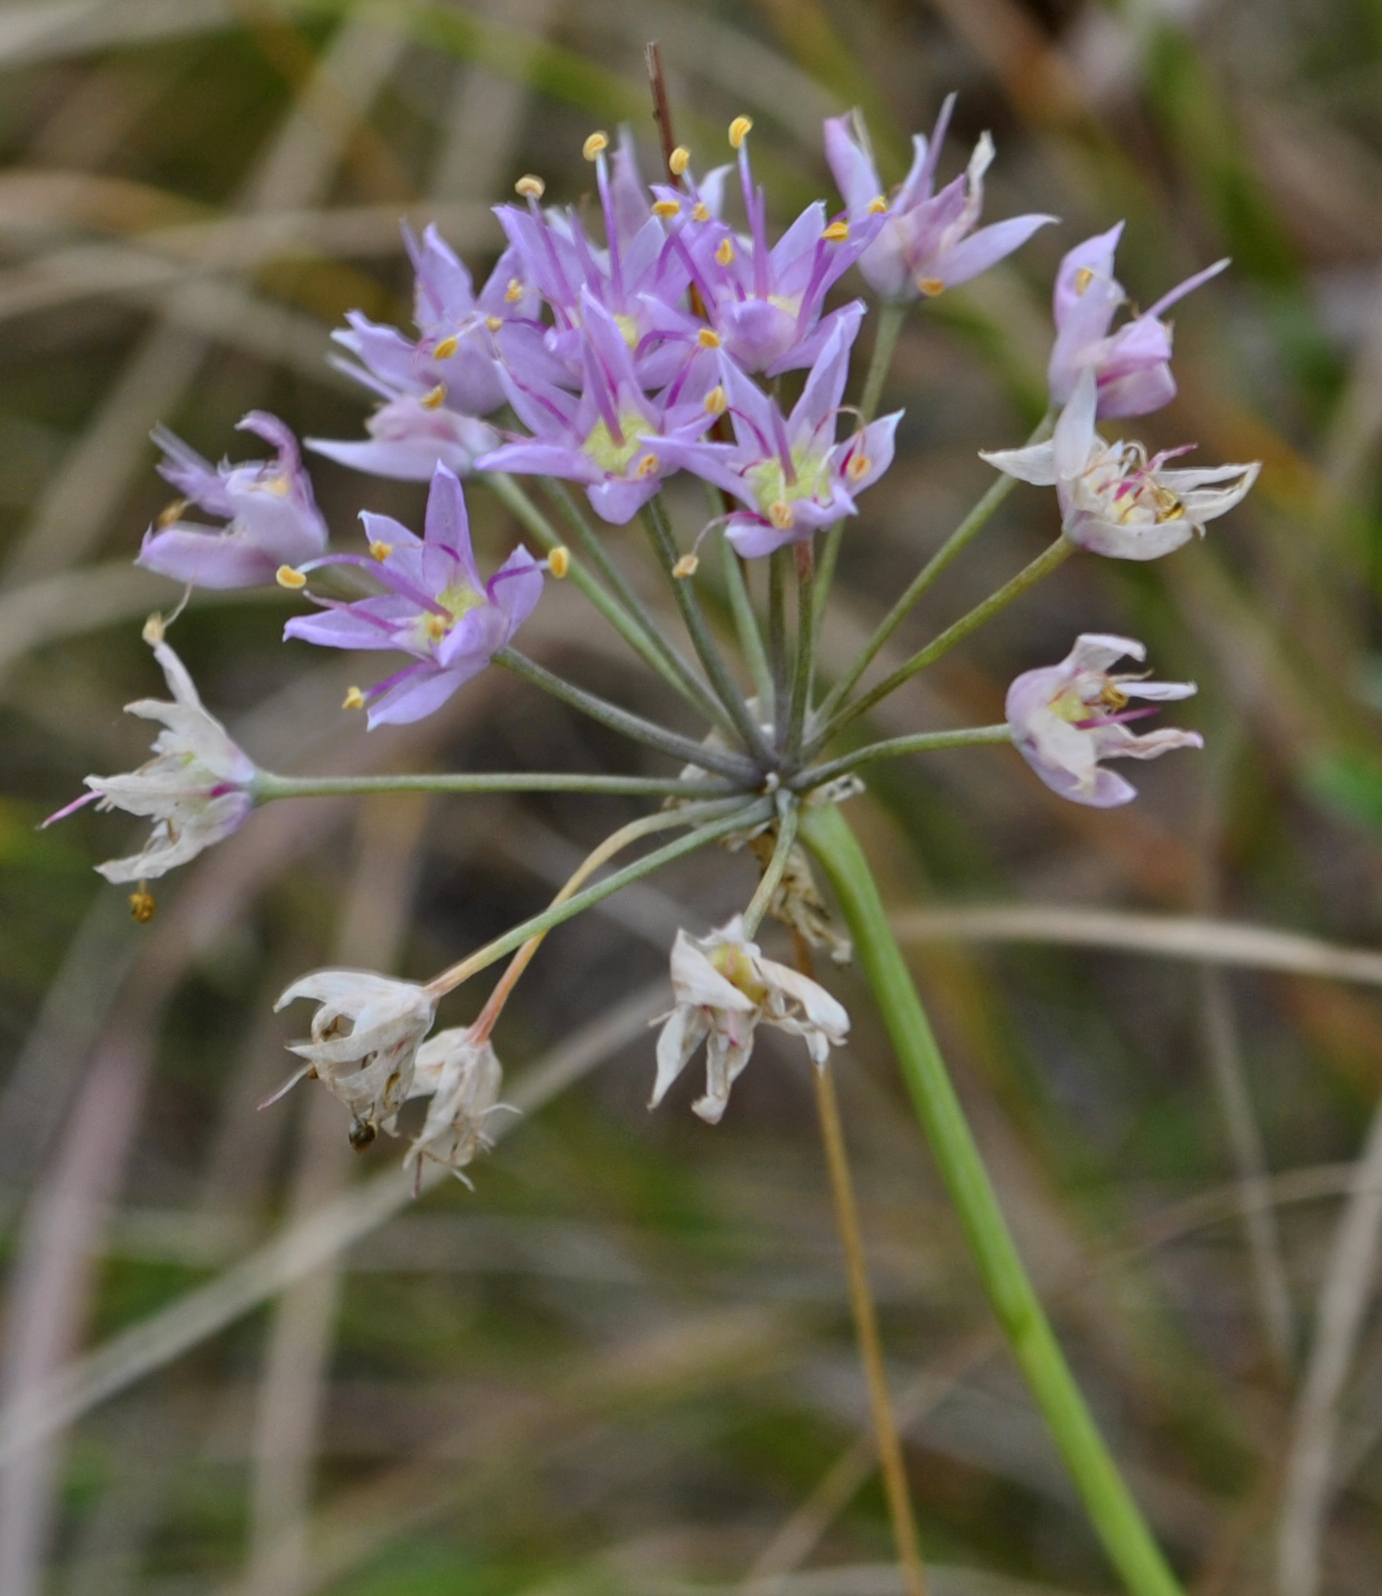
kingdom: Plantae
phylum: Tracheophyta
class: Liliopsida
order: Asparagales
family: Amaryllidaceae
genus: Allium
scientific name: Allium stellatum
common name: Autumn onion
